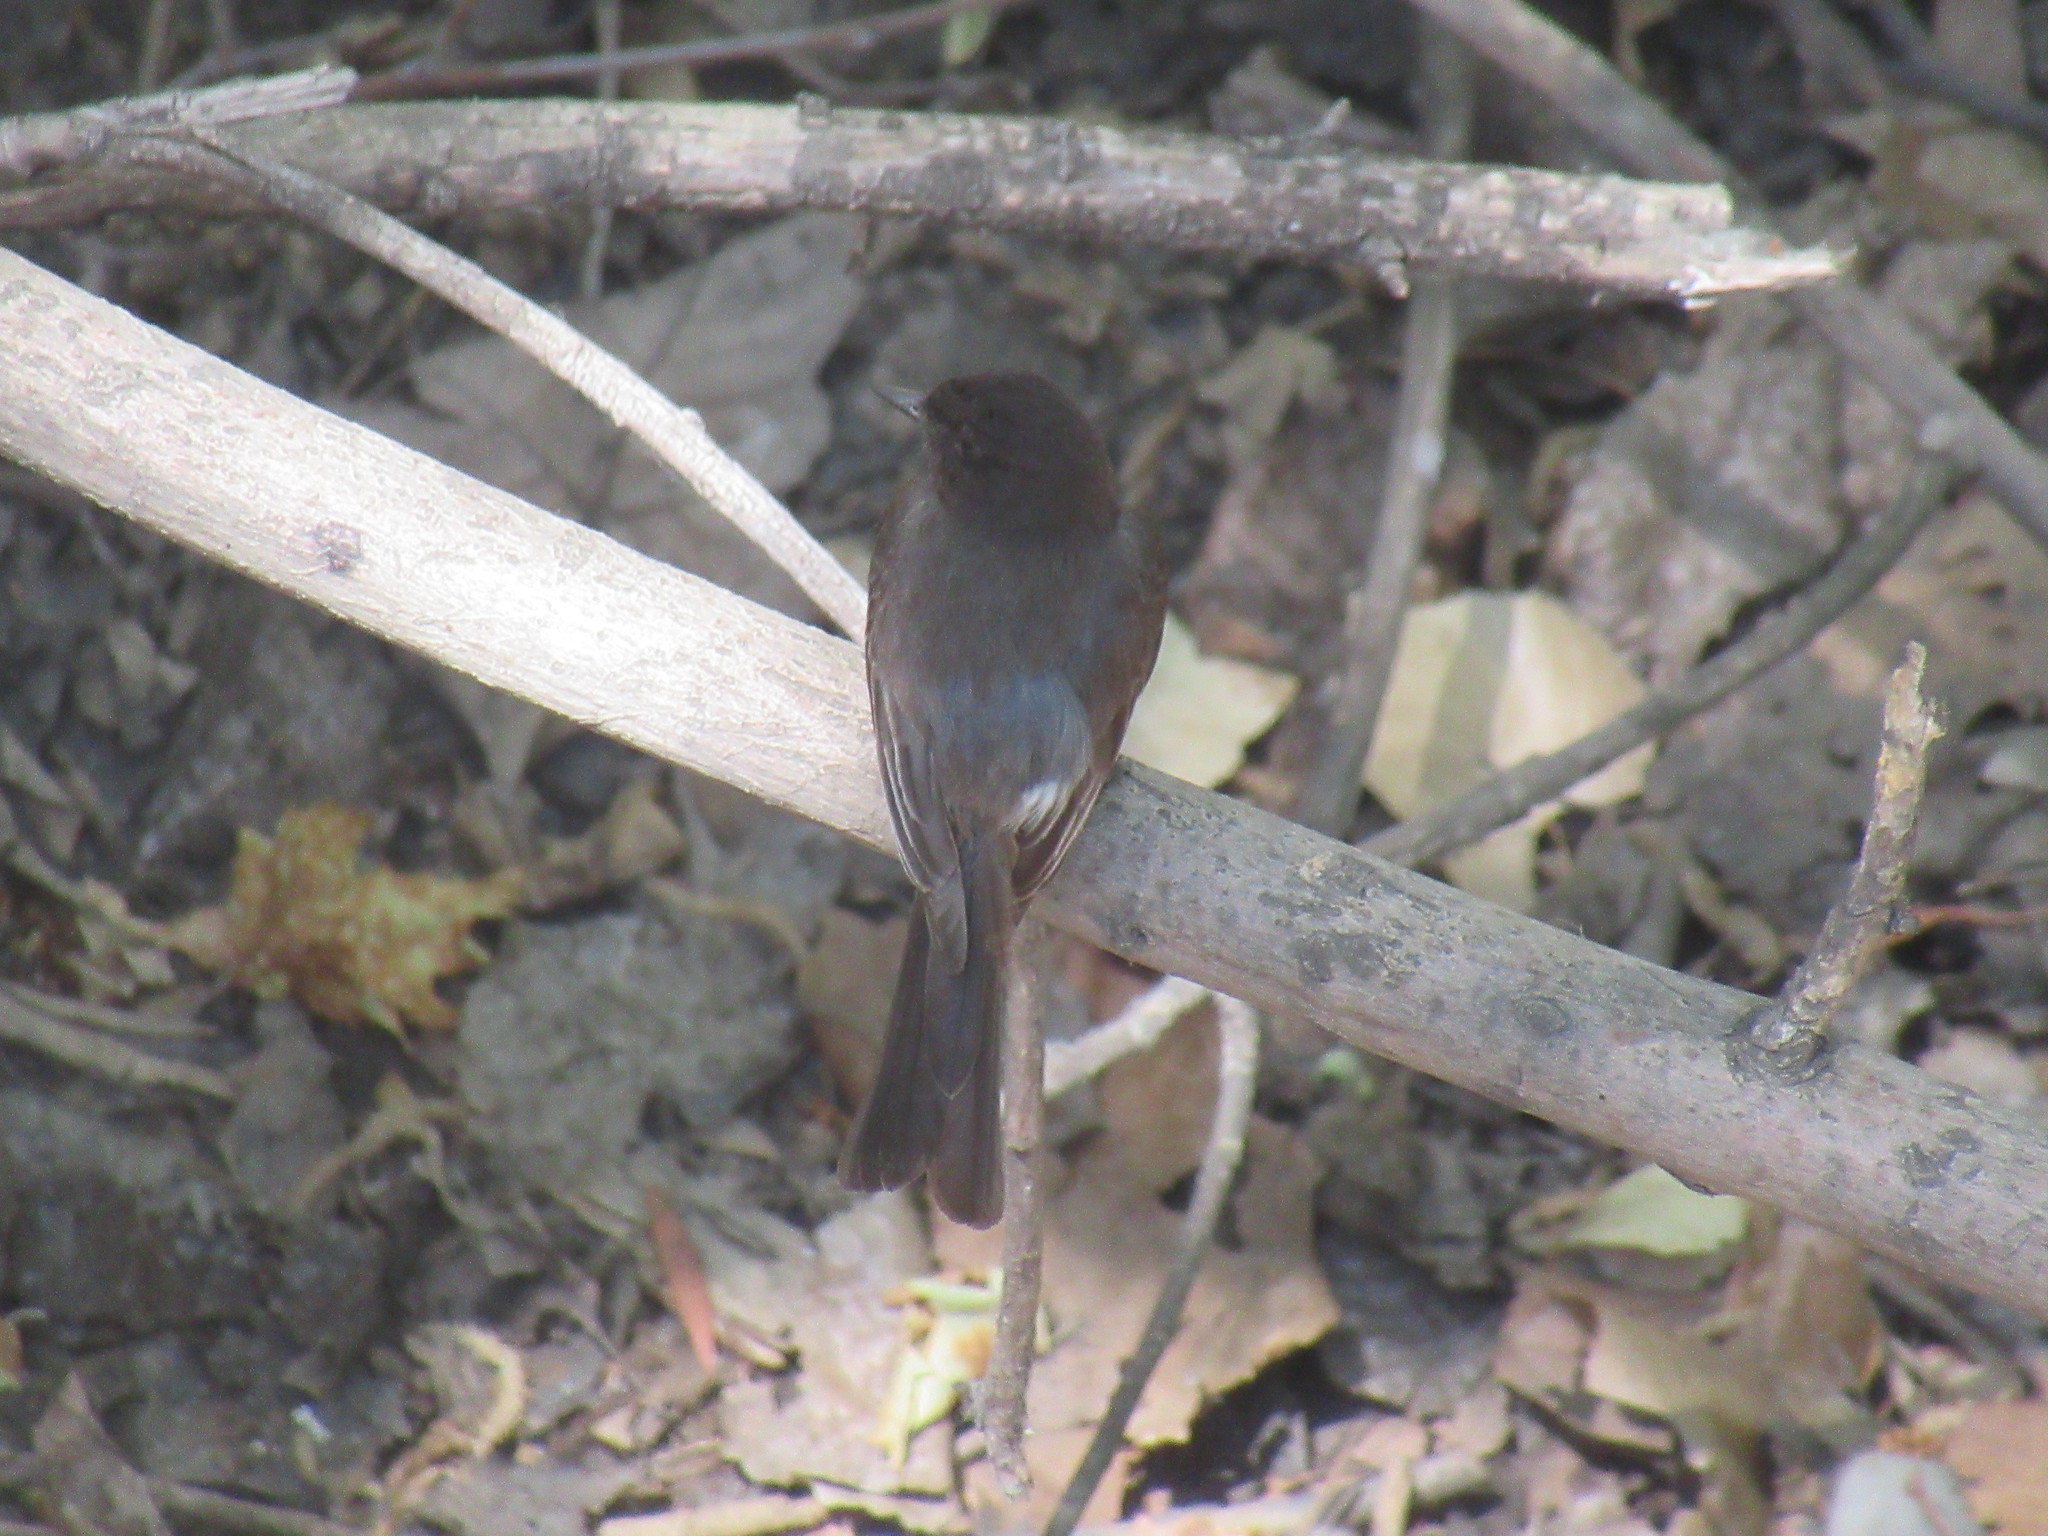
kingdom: Animalia
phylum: Chordata
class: Aves
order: Passeriformes
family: Tyrannidae
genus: Sayornis
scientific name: Sayornis nigricans
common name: Black phoebe
